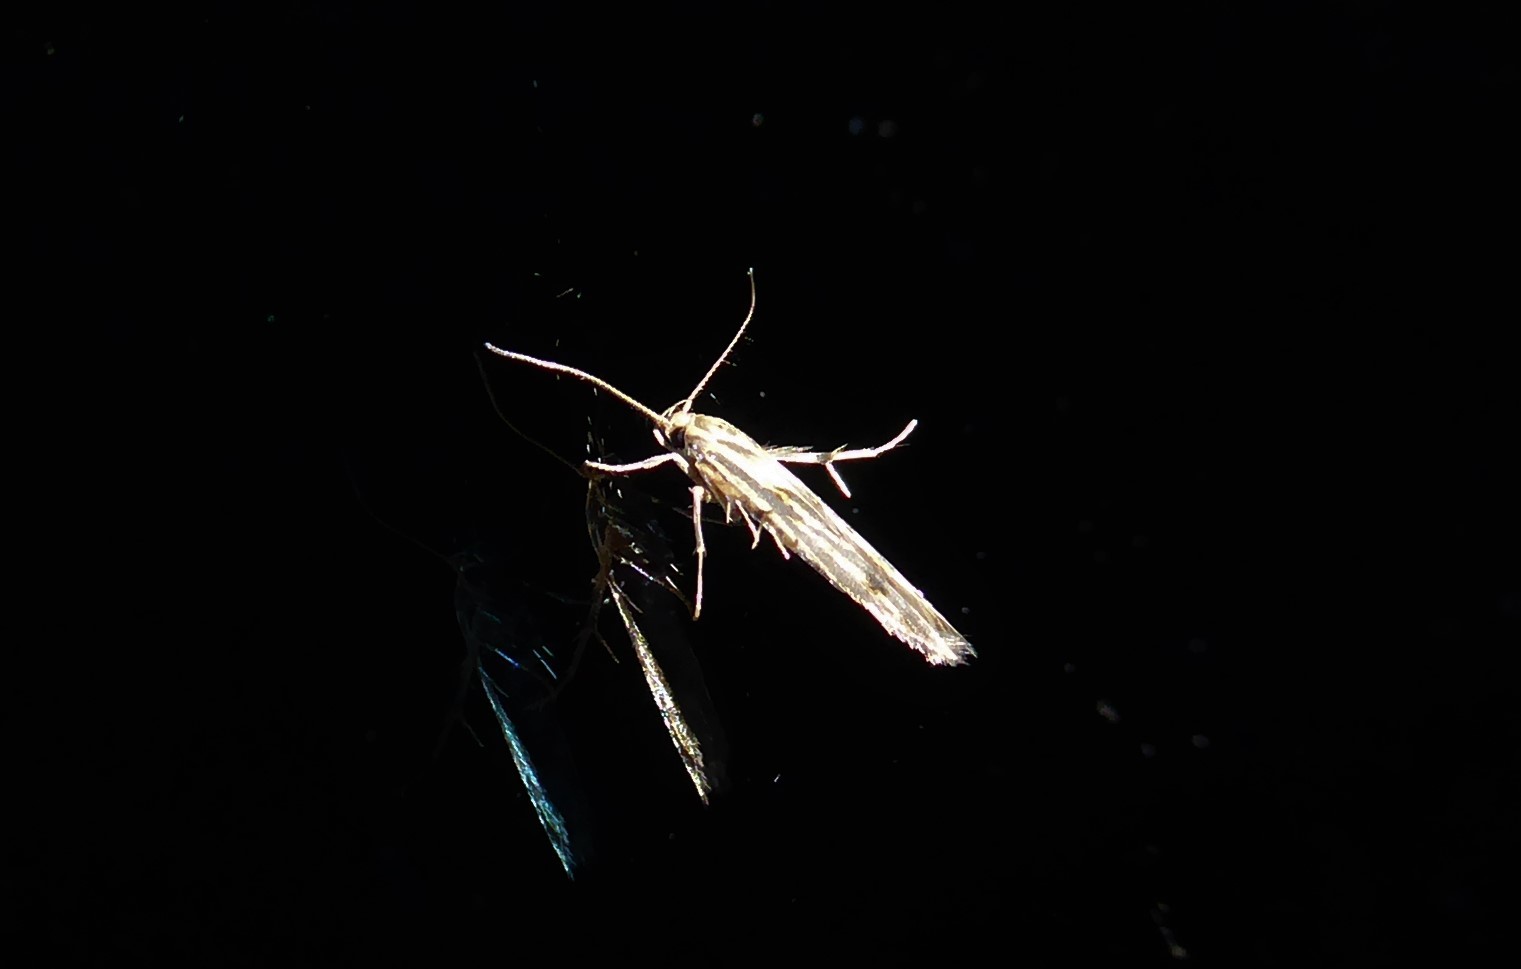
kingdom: Animalia
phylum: Arthropoda
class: Insecta
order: Lepidoptera
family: Stathmopodidae
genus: Stathmopoda
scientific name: Stathmopoda plumbiflua
